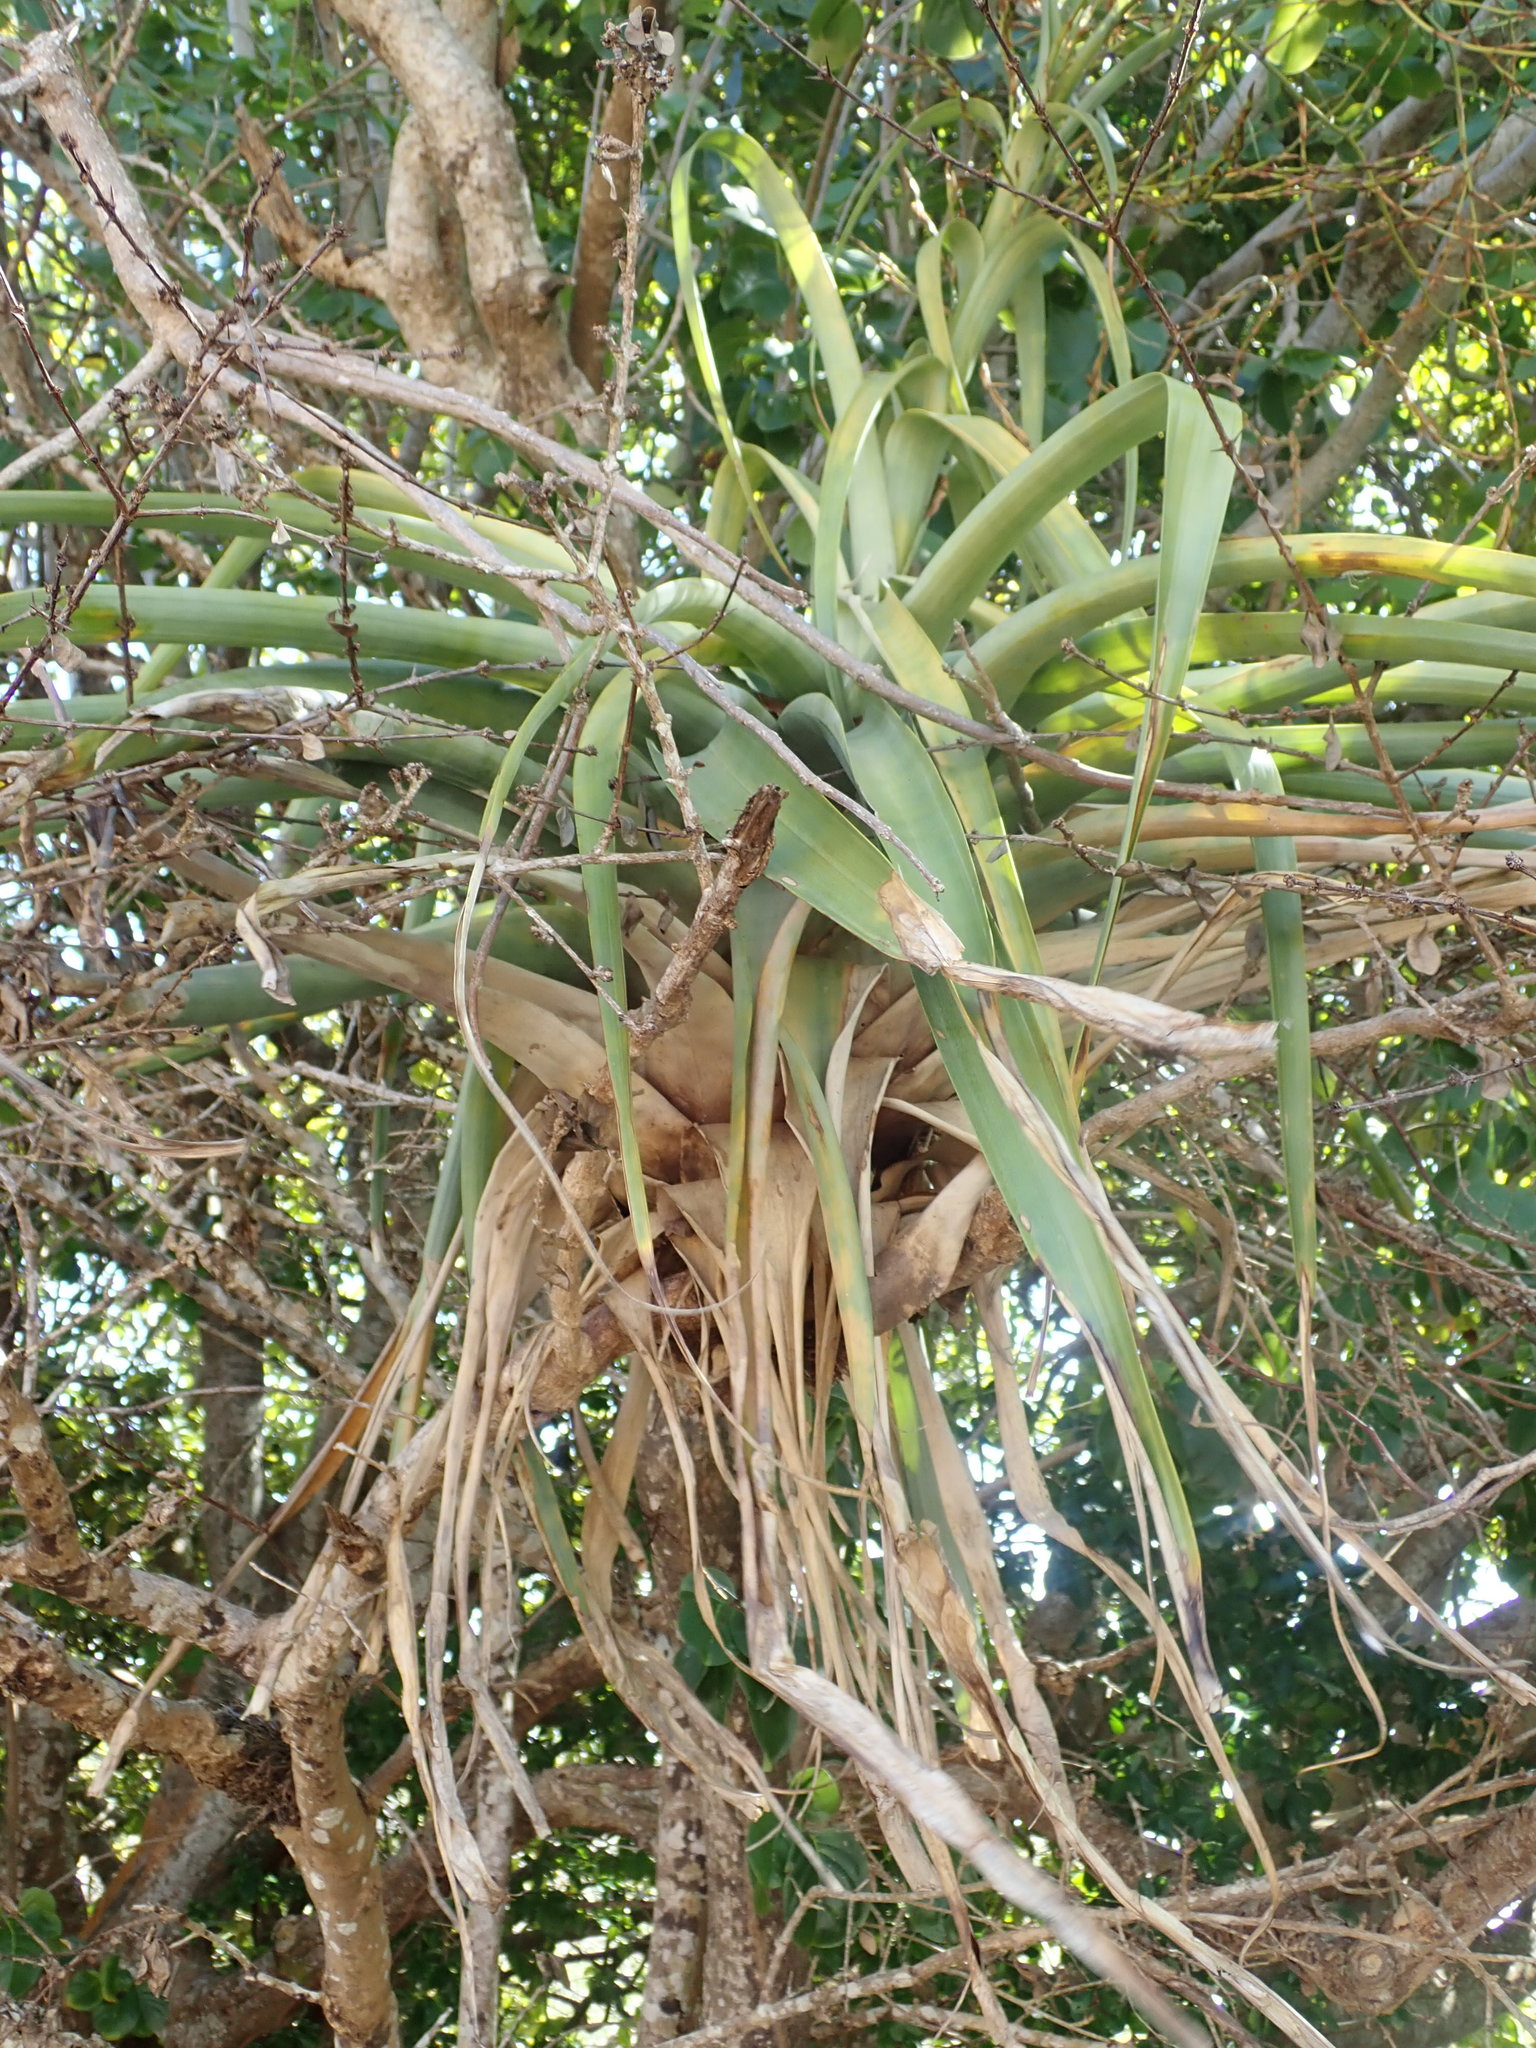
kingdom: Plantae
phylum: Tracheophyta
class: Liliopsida
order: Poales
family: Bromeliaceae
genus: Tillandsia
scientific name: Tillandsia utriculata
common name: Wild pine
